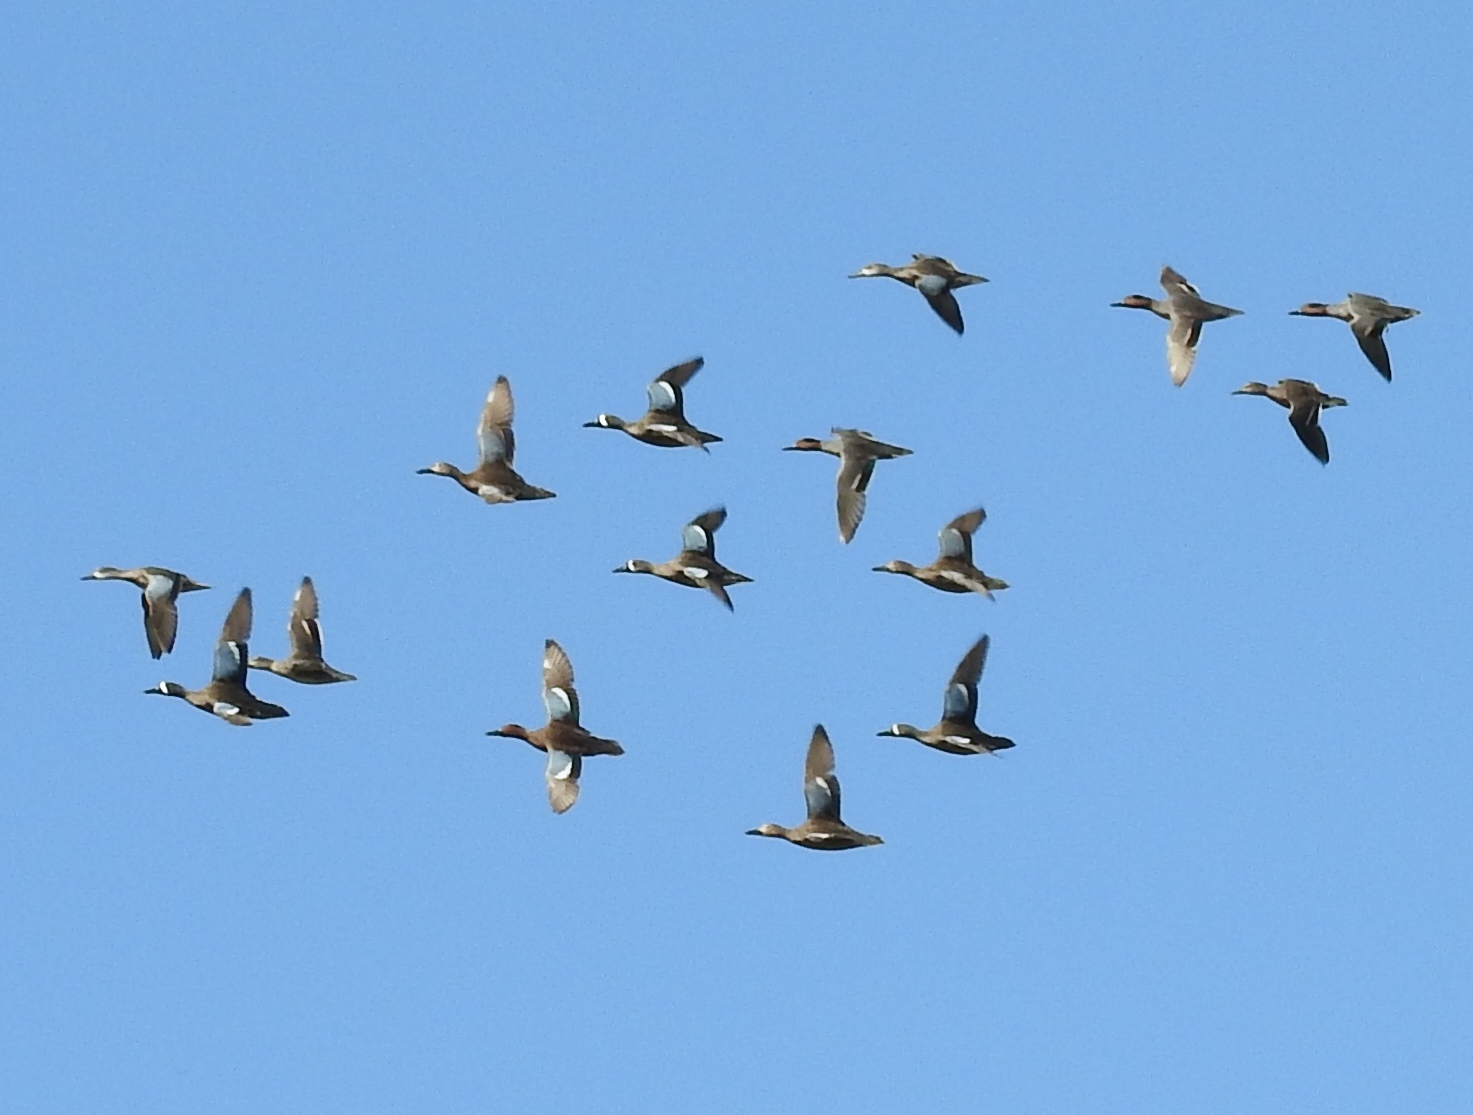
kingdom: Animalia
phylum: Chordata
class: Aves
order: Anseriformes
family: Anatidae
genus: Spatula
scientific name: Spatula discors
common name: Blue-winged teal
